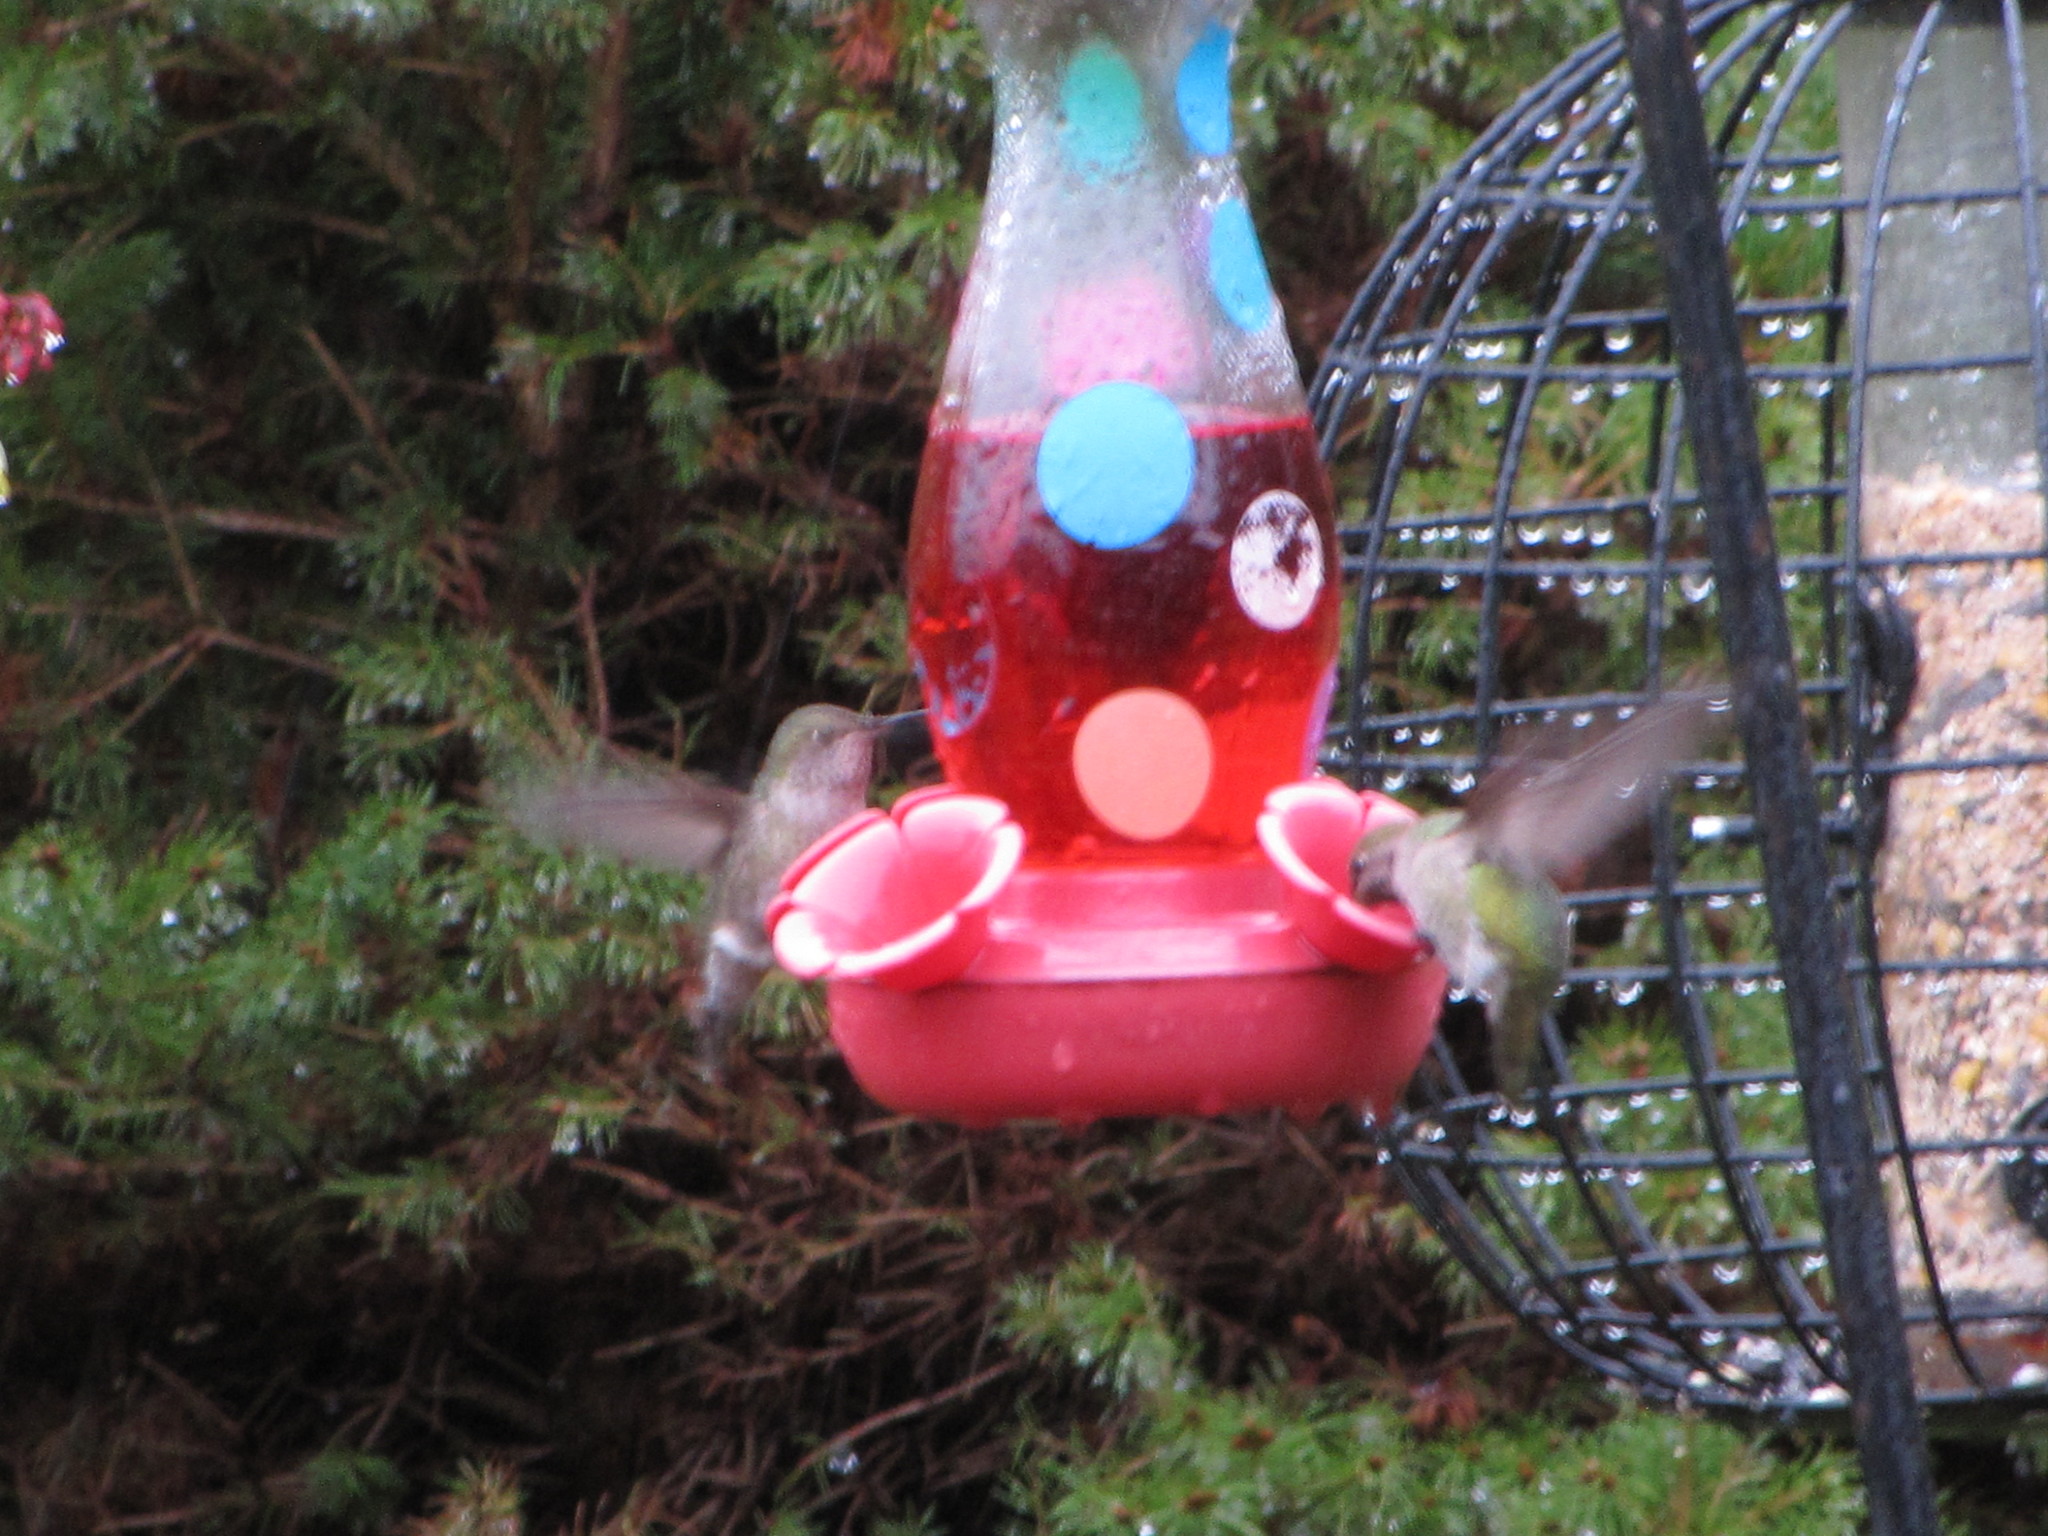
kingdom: Animalia
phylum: Chordata
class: Aves
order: Apodiformes
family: Trochilidae
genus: Calypte
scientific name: Calypte anna
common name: Anna's hummingbird
